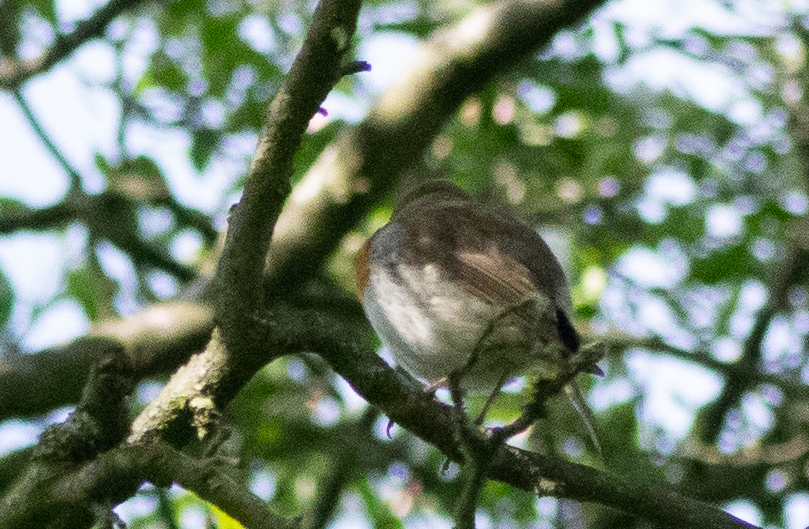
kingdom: Animalia
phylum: Chordata
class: Aves
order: Passeriformes
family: Muscicapidae
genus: Erithacus
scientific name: Erithacus rubecula
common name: European robin
